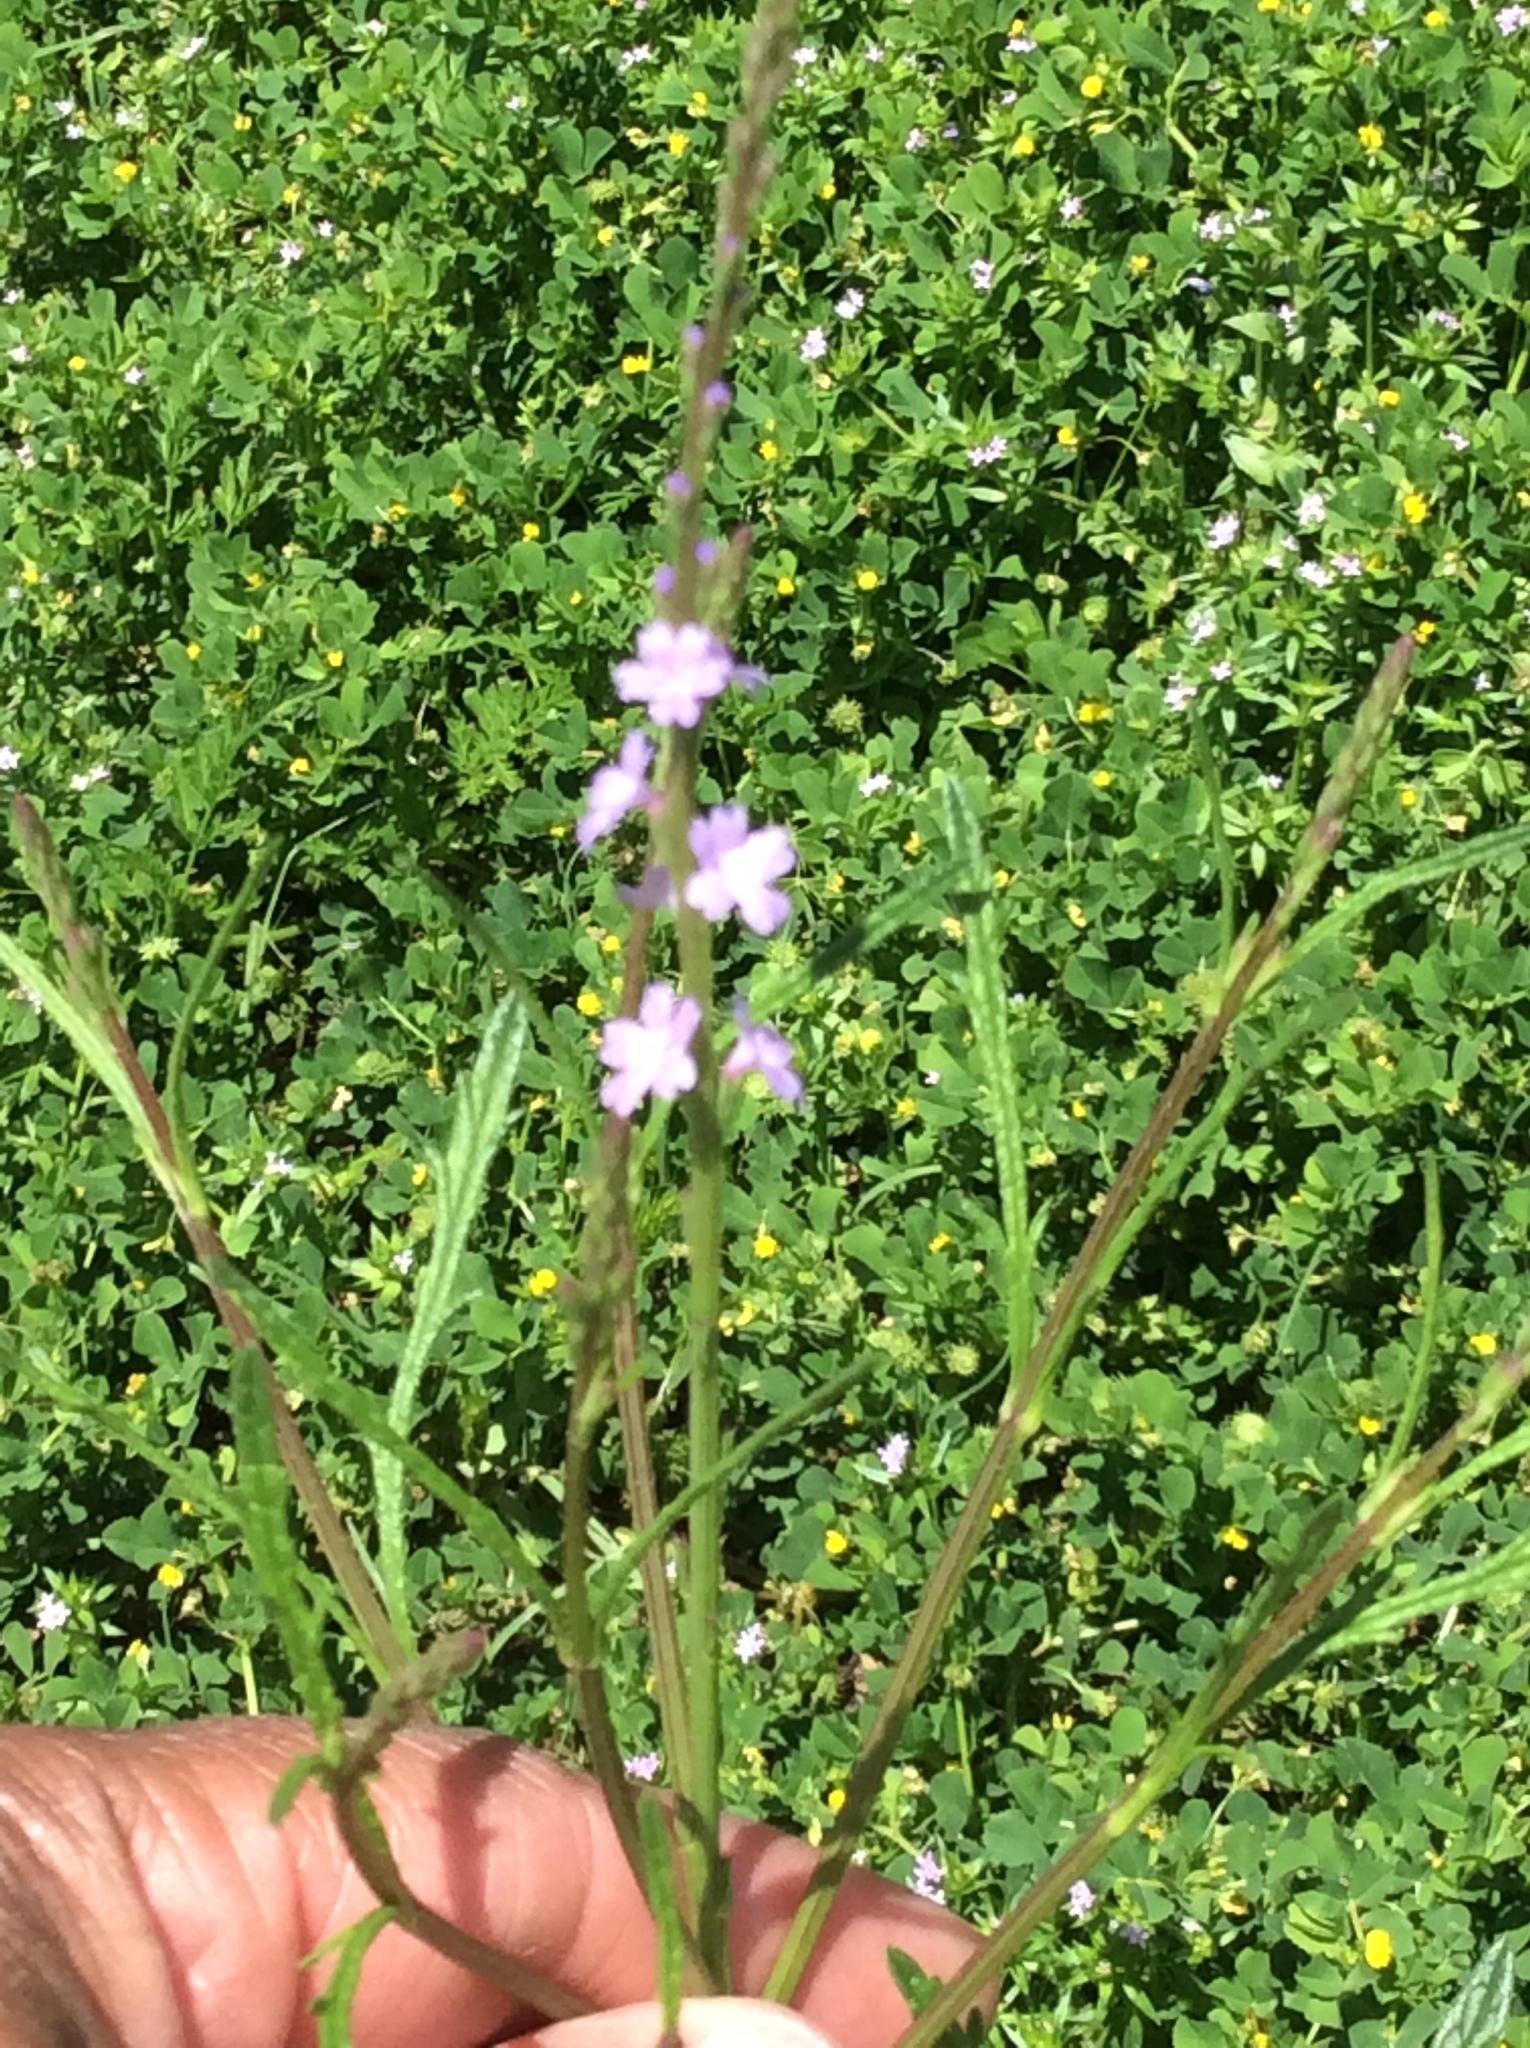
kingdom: Plantae
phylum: Tracheophyta
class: Magnoliopsida
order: Lamiales
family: Verbenaceae
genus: Verbena
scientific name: Verbena halei
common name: Texas vervain
